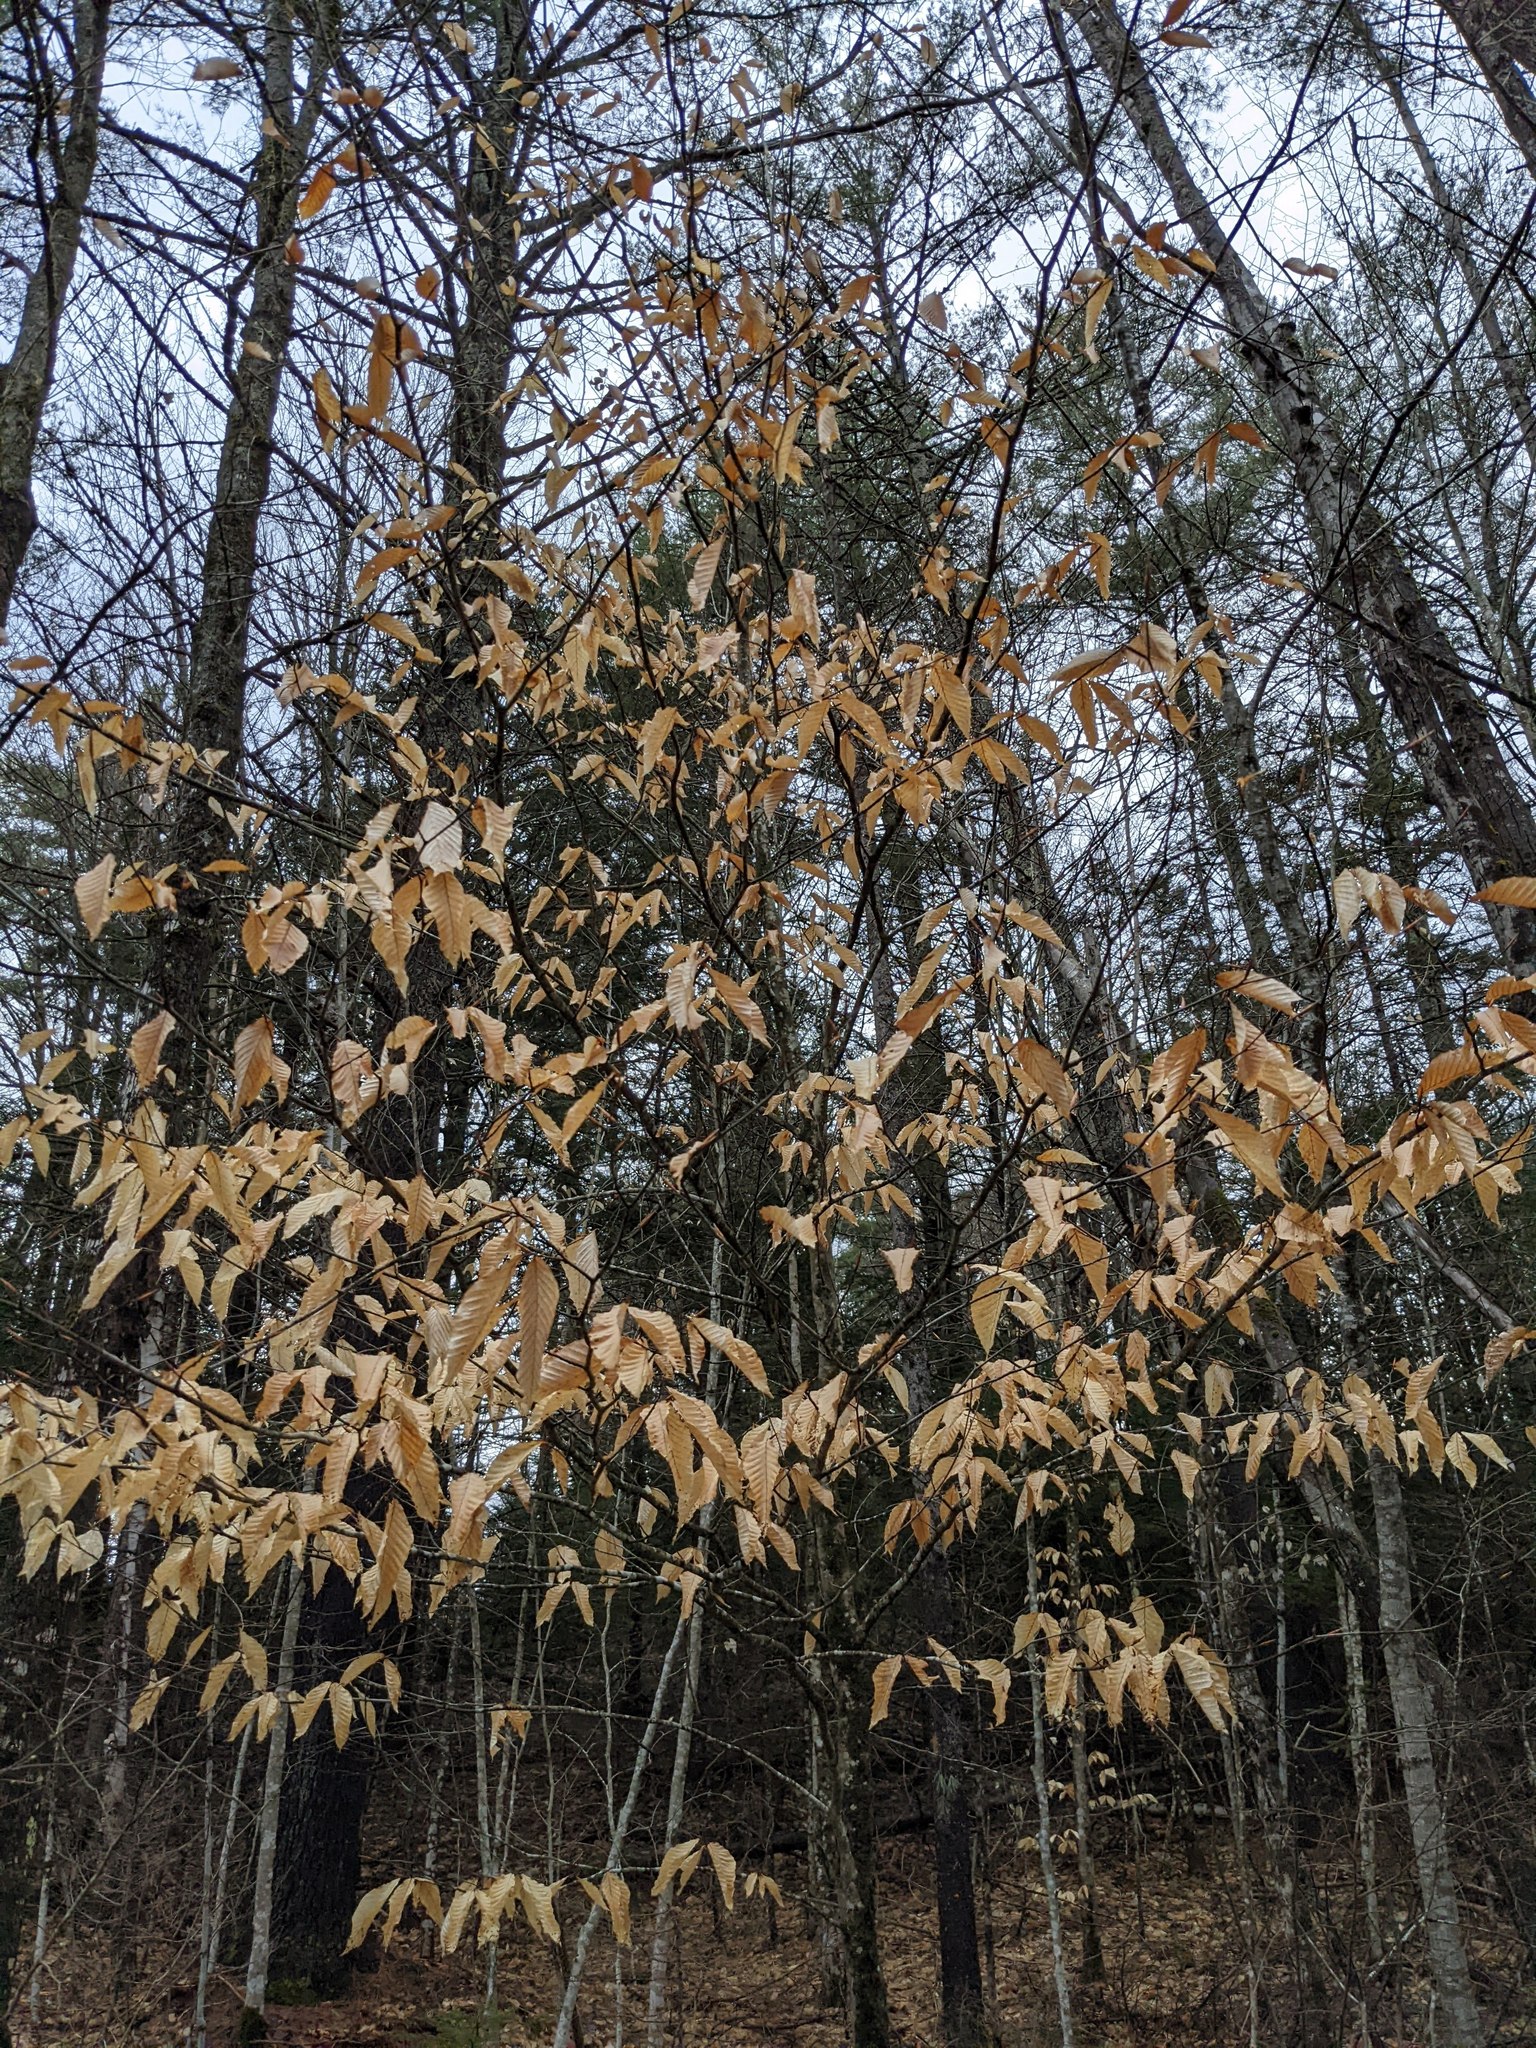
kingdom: Plantae
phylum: Tracheophyta
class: Magnoliopsida
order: Fagales
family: Fagaceae
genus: Fagus
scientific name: Fagus grandifolia
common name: American beech
